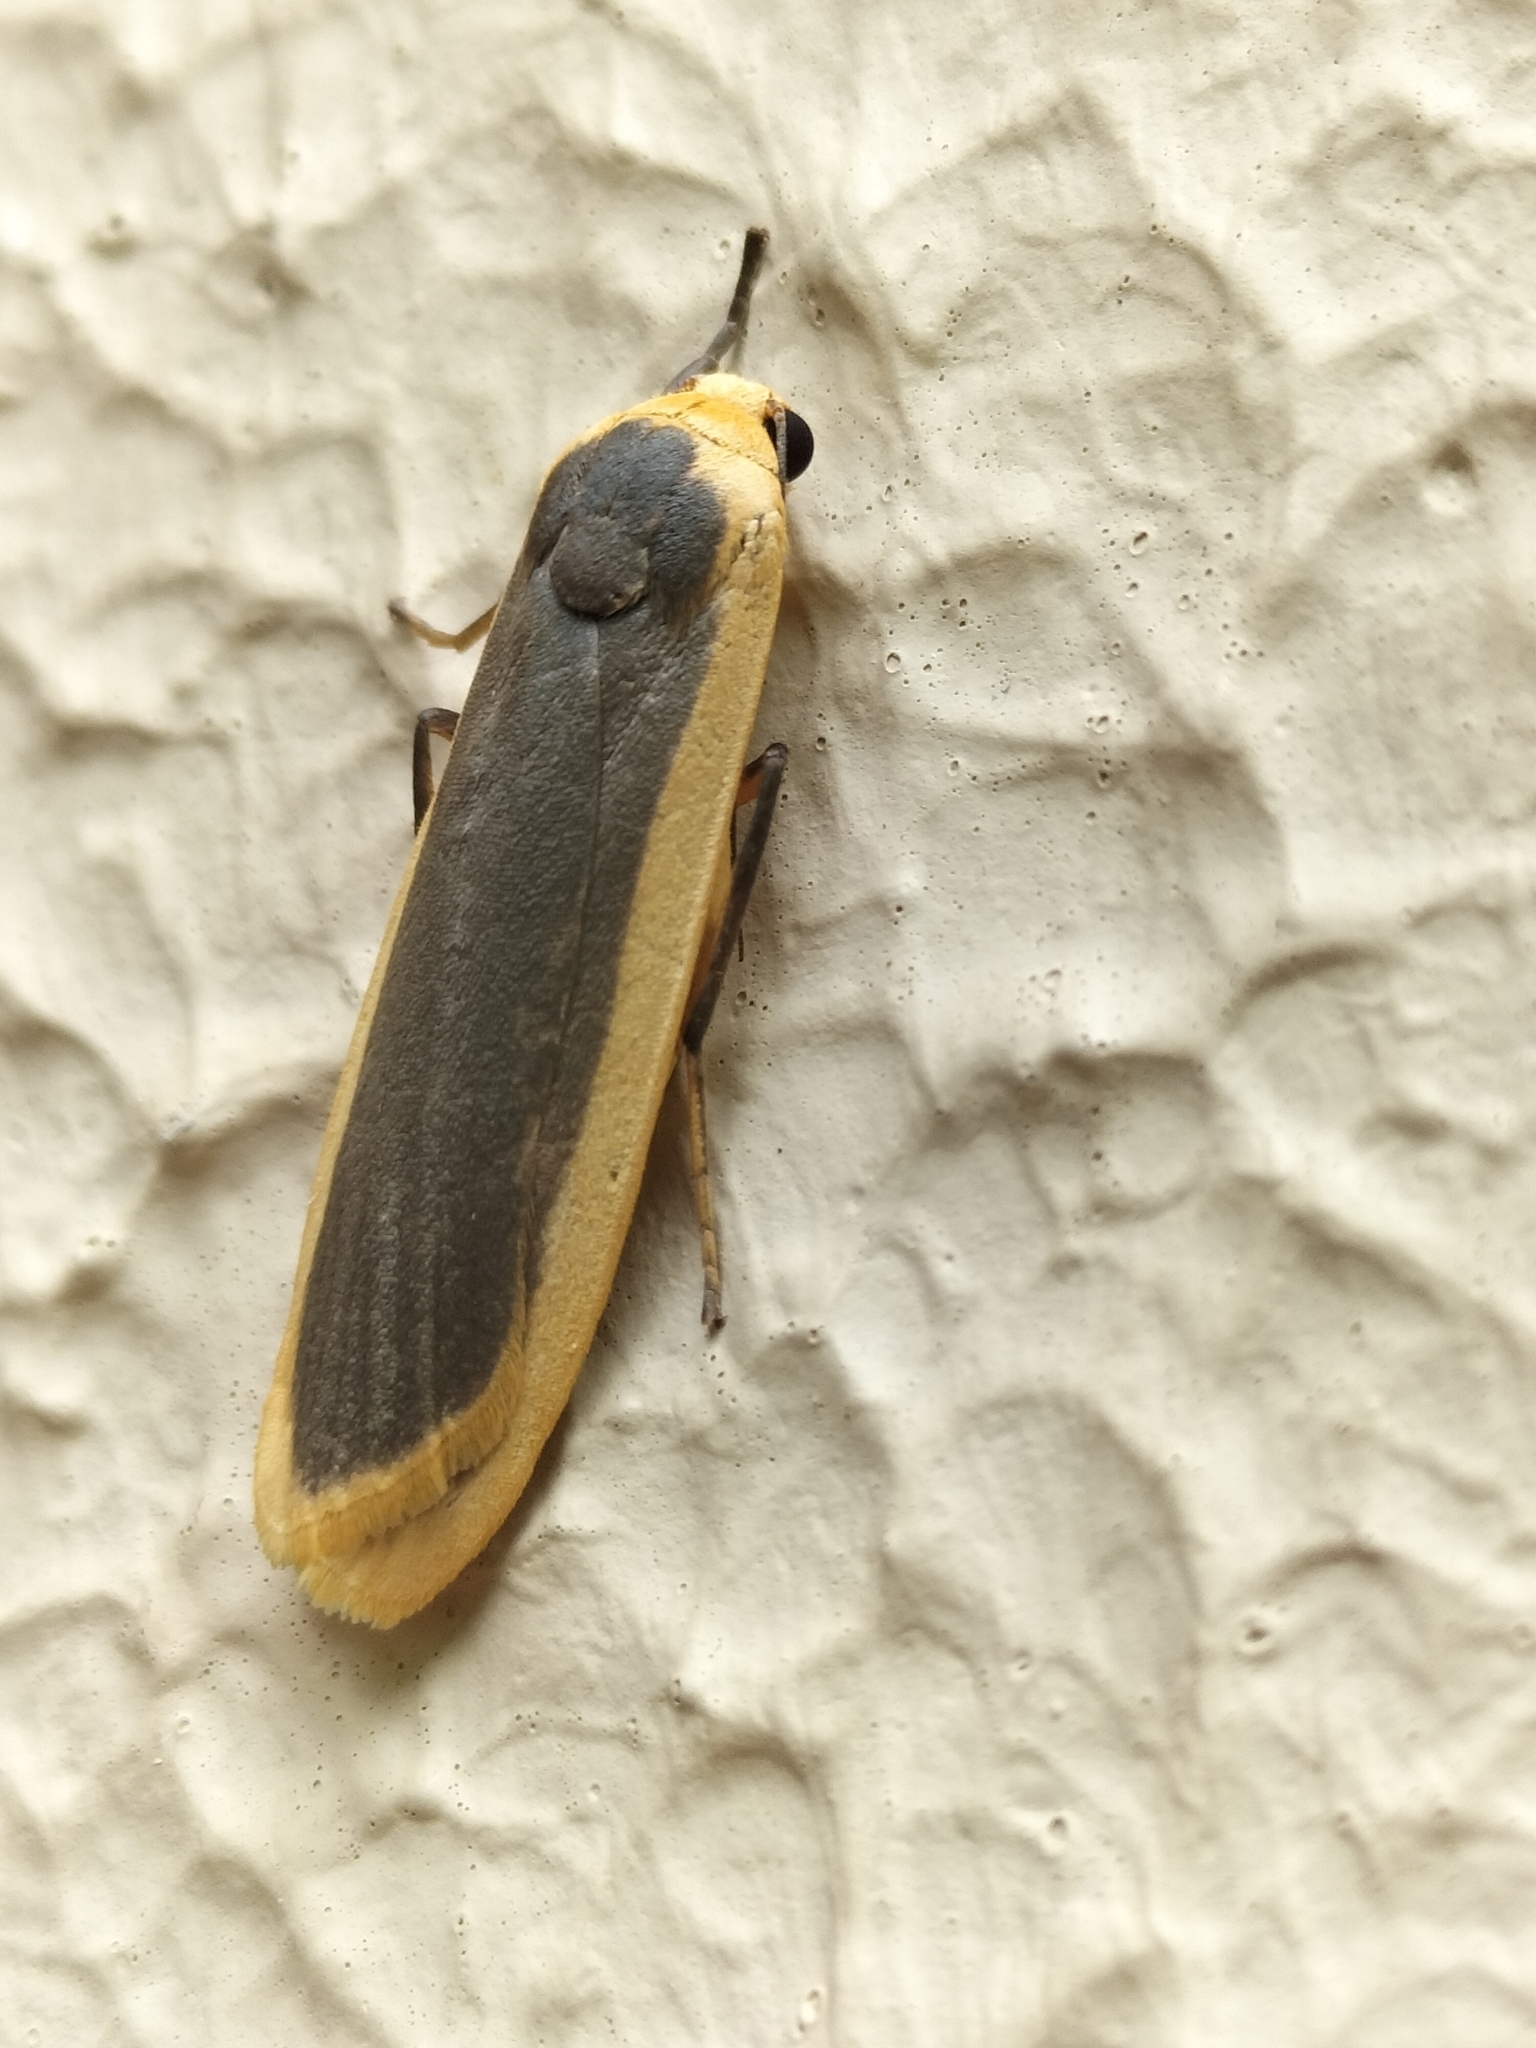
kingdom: Animalia
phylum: Arthropoda
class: Insecta
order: Lepidoptera
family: Erebidae
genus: Brunia
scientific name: Brunia dorsalis
